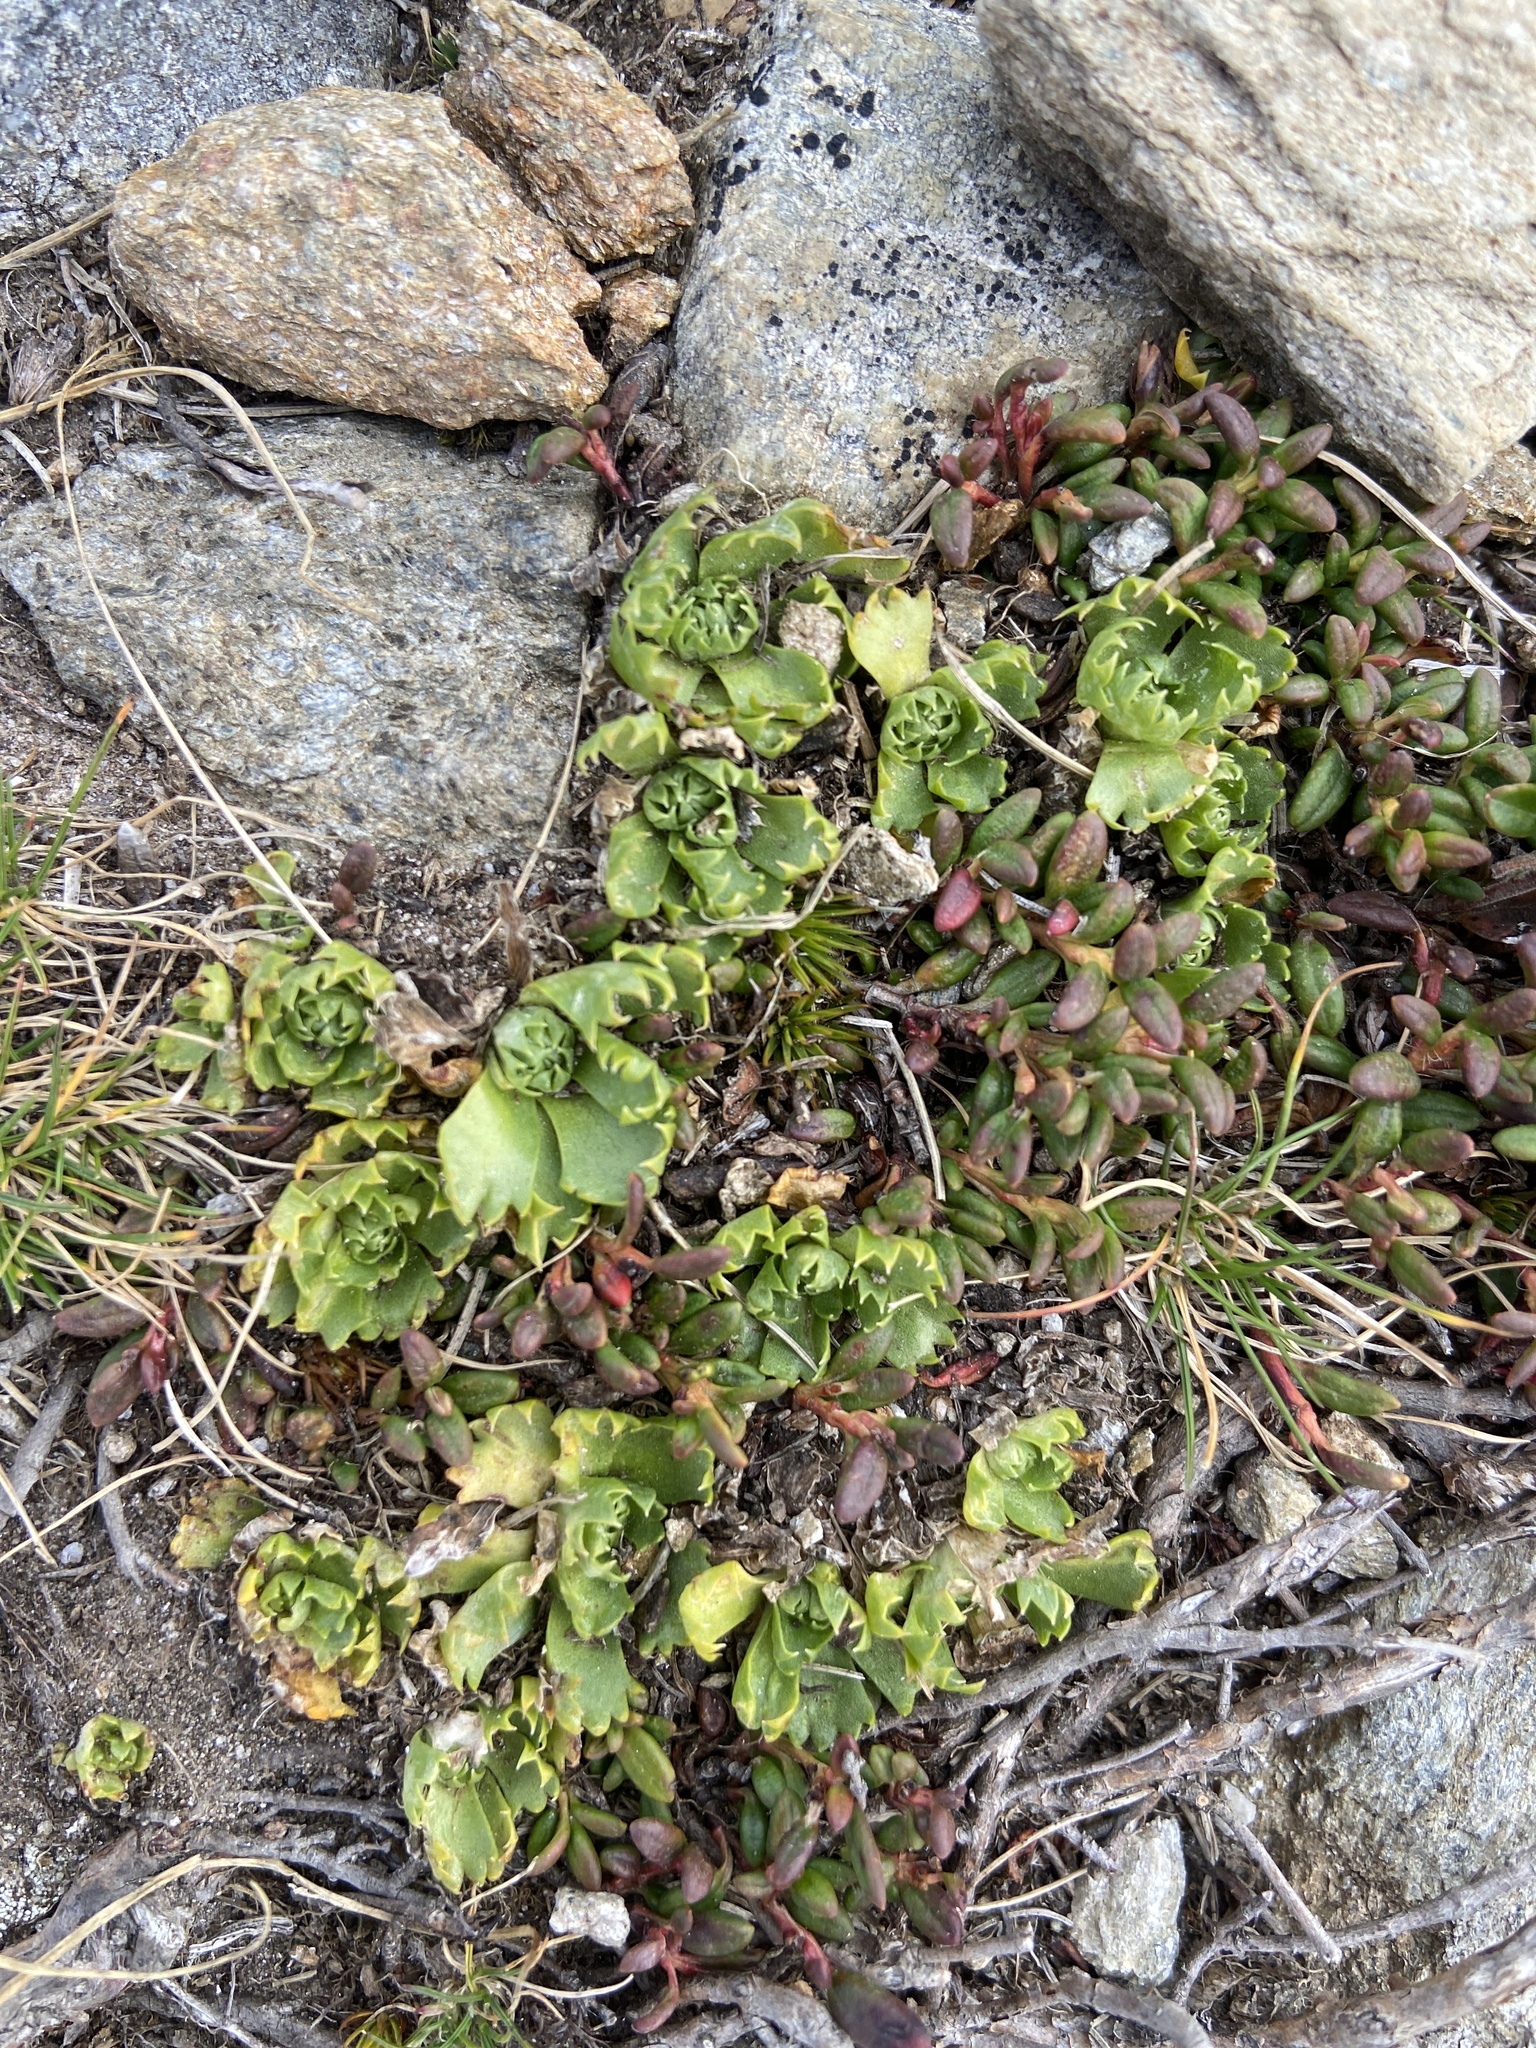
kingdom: Plantae
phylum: Tracheophyta
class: Magnoliopsida
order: Ericales
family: Primulaceae
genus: Primula
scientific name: Primula minima
